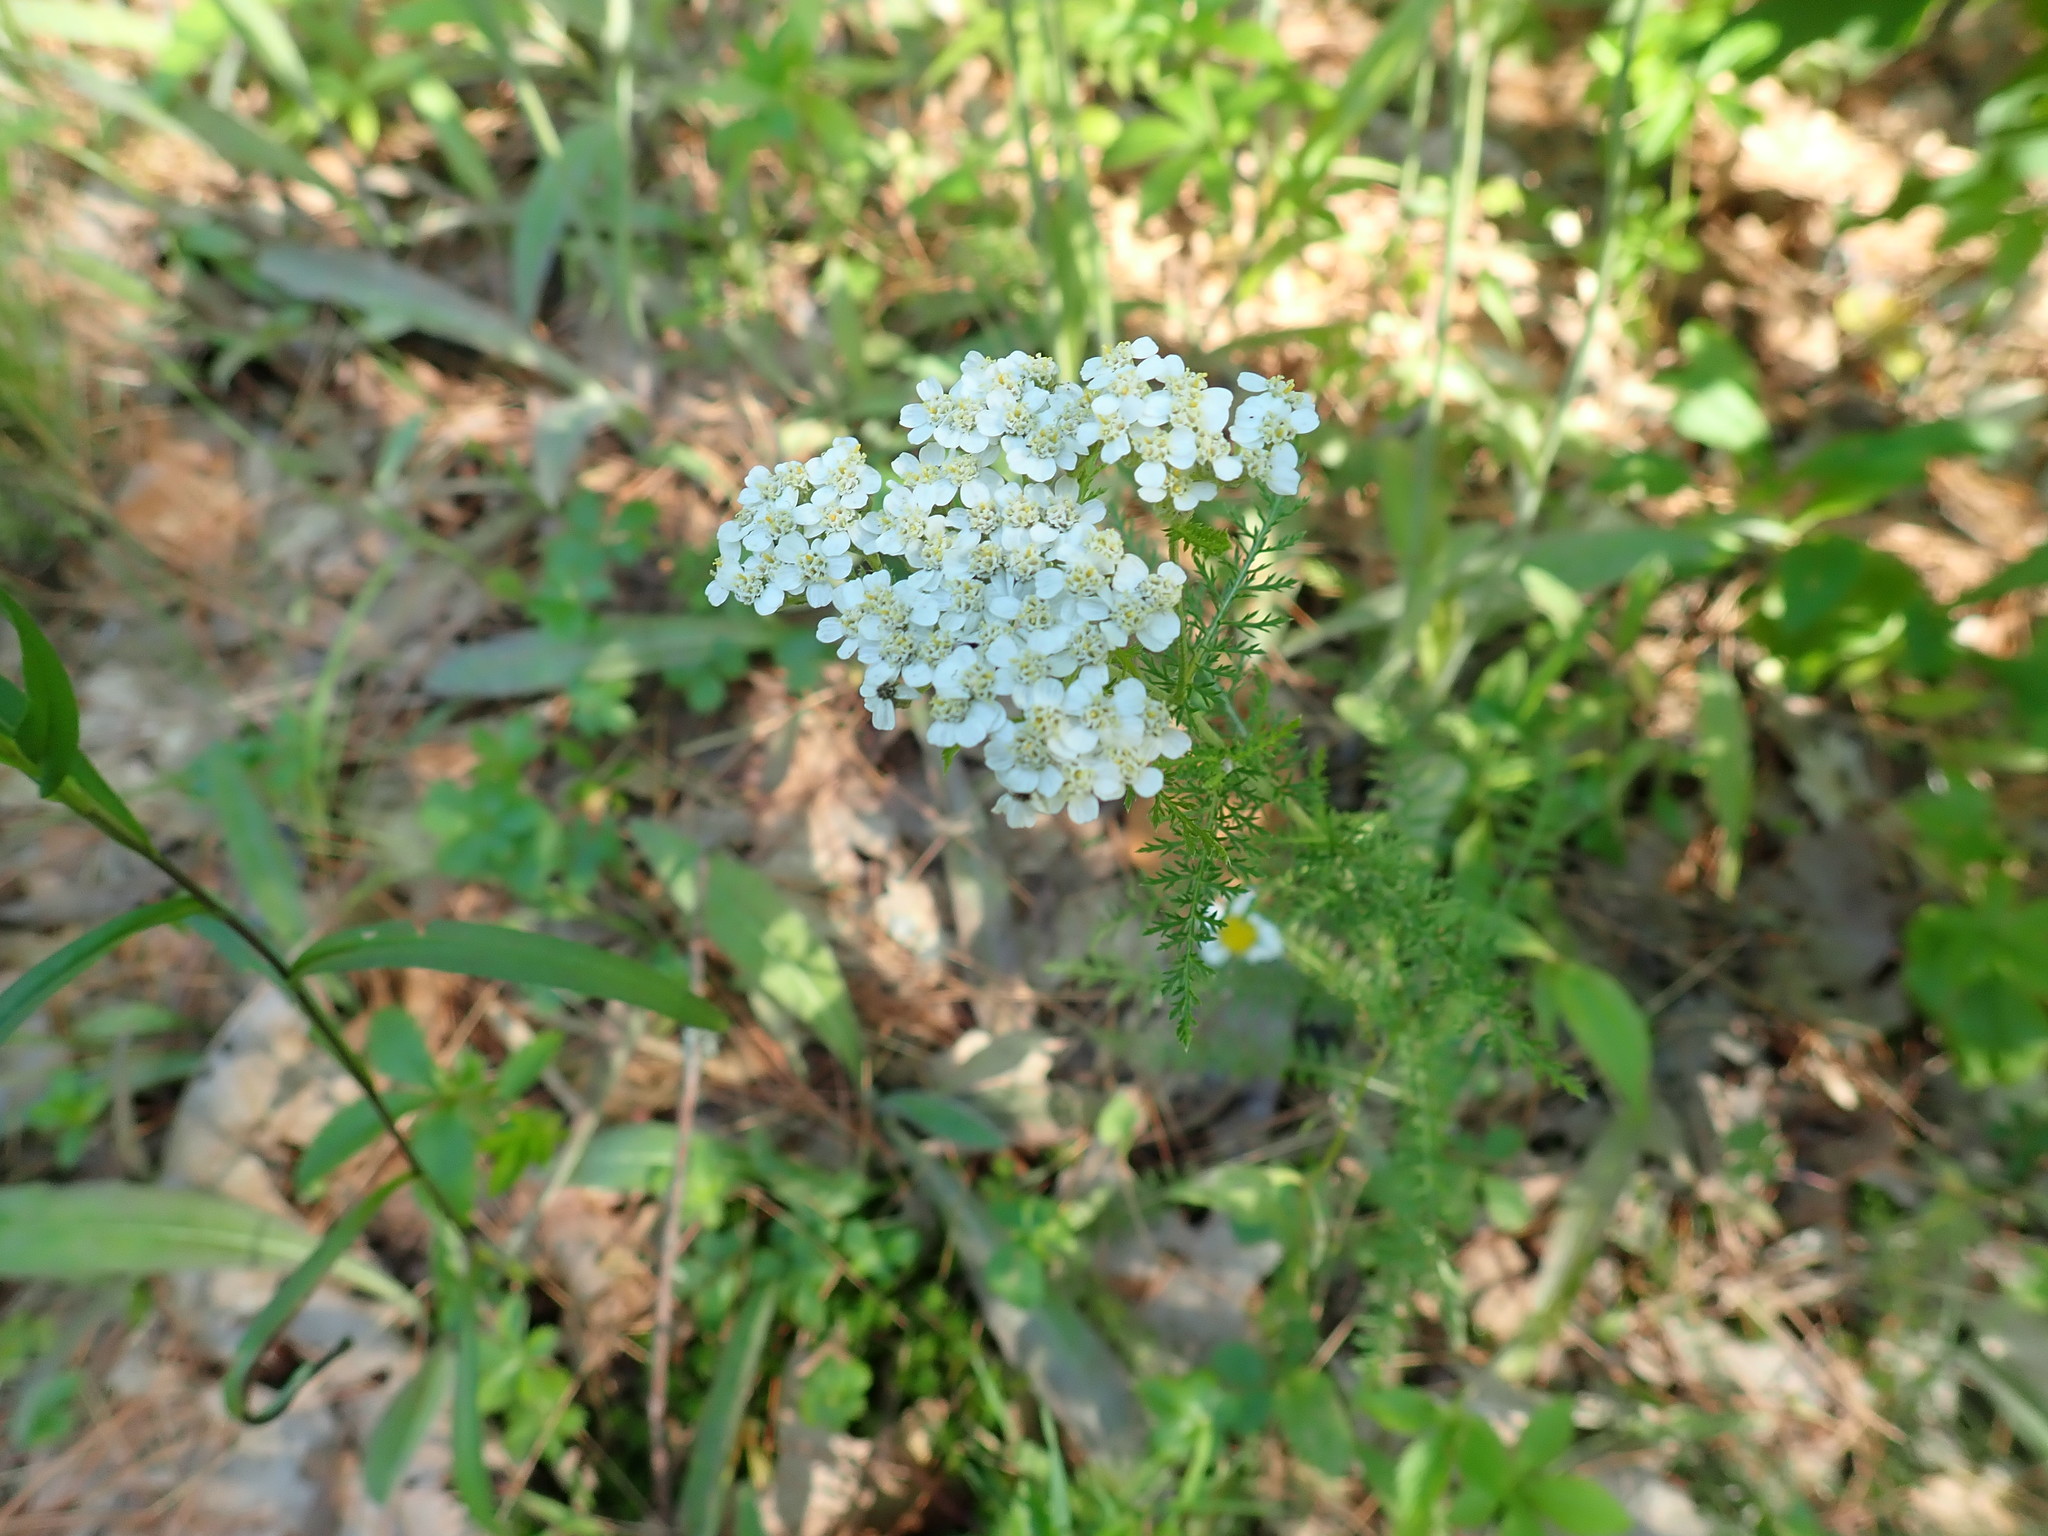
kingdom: Plantae
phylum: Tracheophyta
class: Magnoliopsida
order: Asterales
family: Asteraceae
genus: Achillea
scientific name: Achillea millefolium
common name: Yarrow
